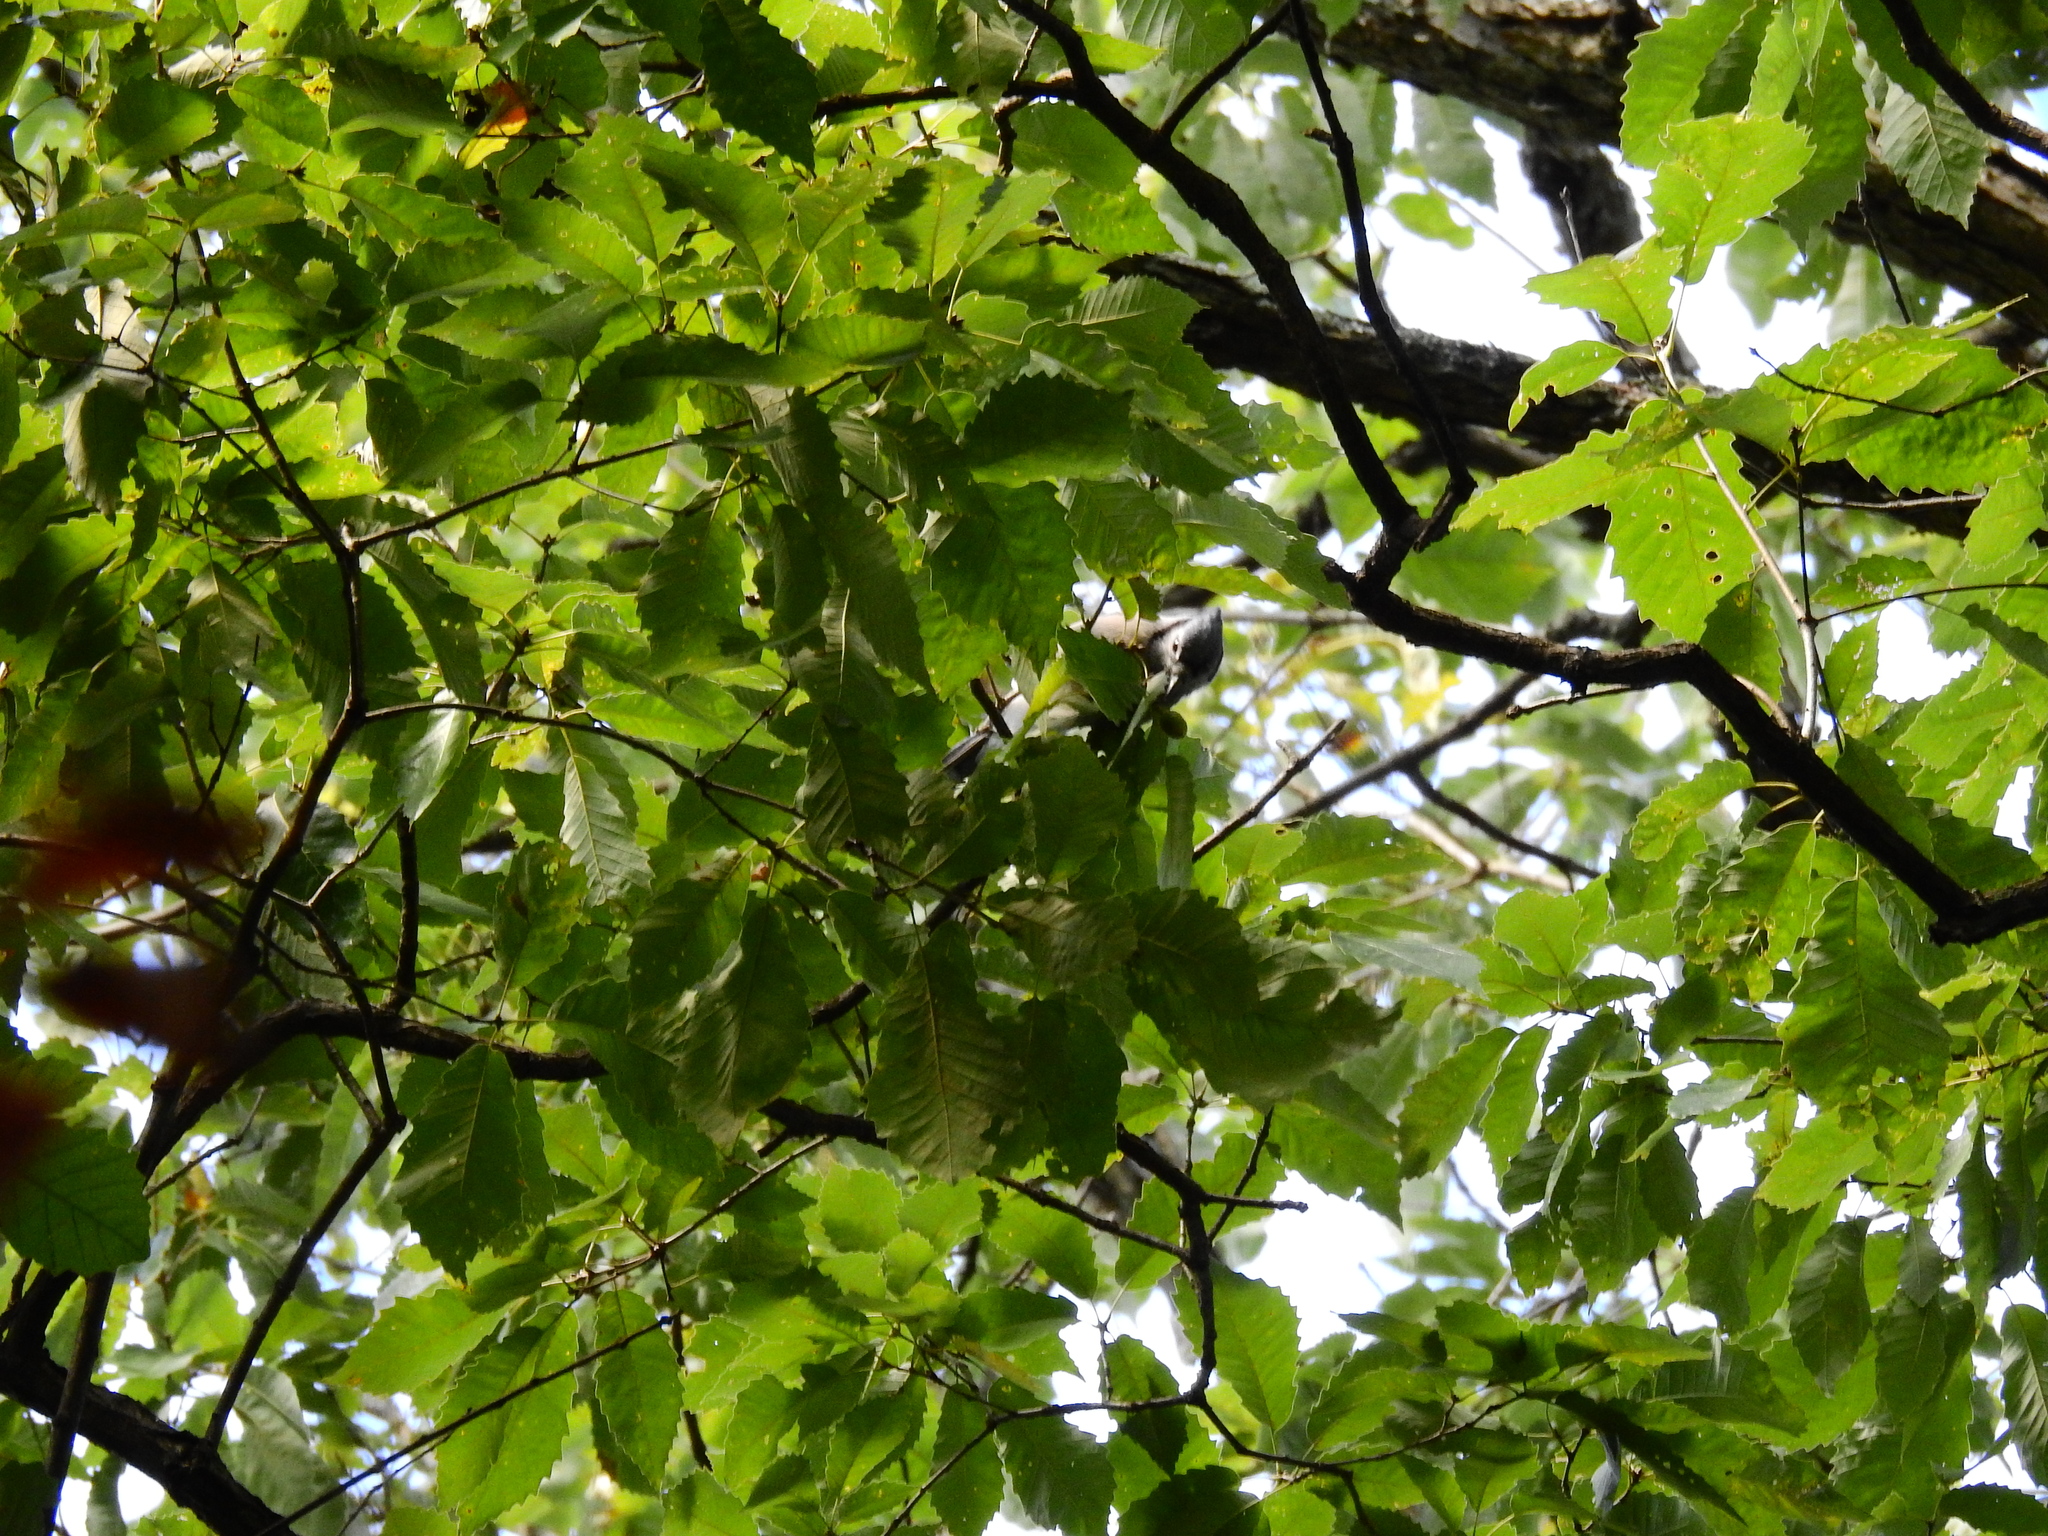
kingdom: Animalia
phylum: Chordata
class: Aves
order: Passeriformes
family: Paridae
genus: Baeolophus
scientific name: Baeolophus bicolor
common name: Tufted titmouse
